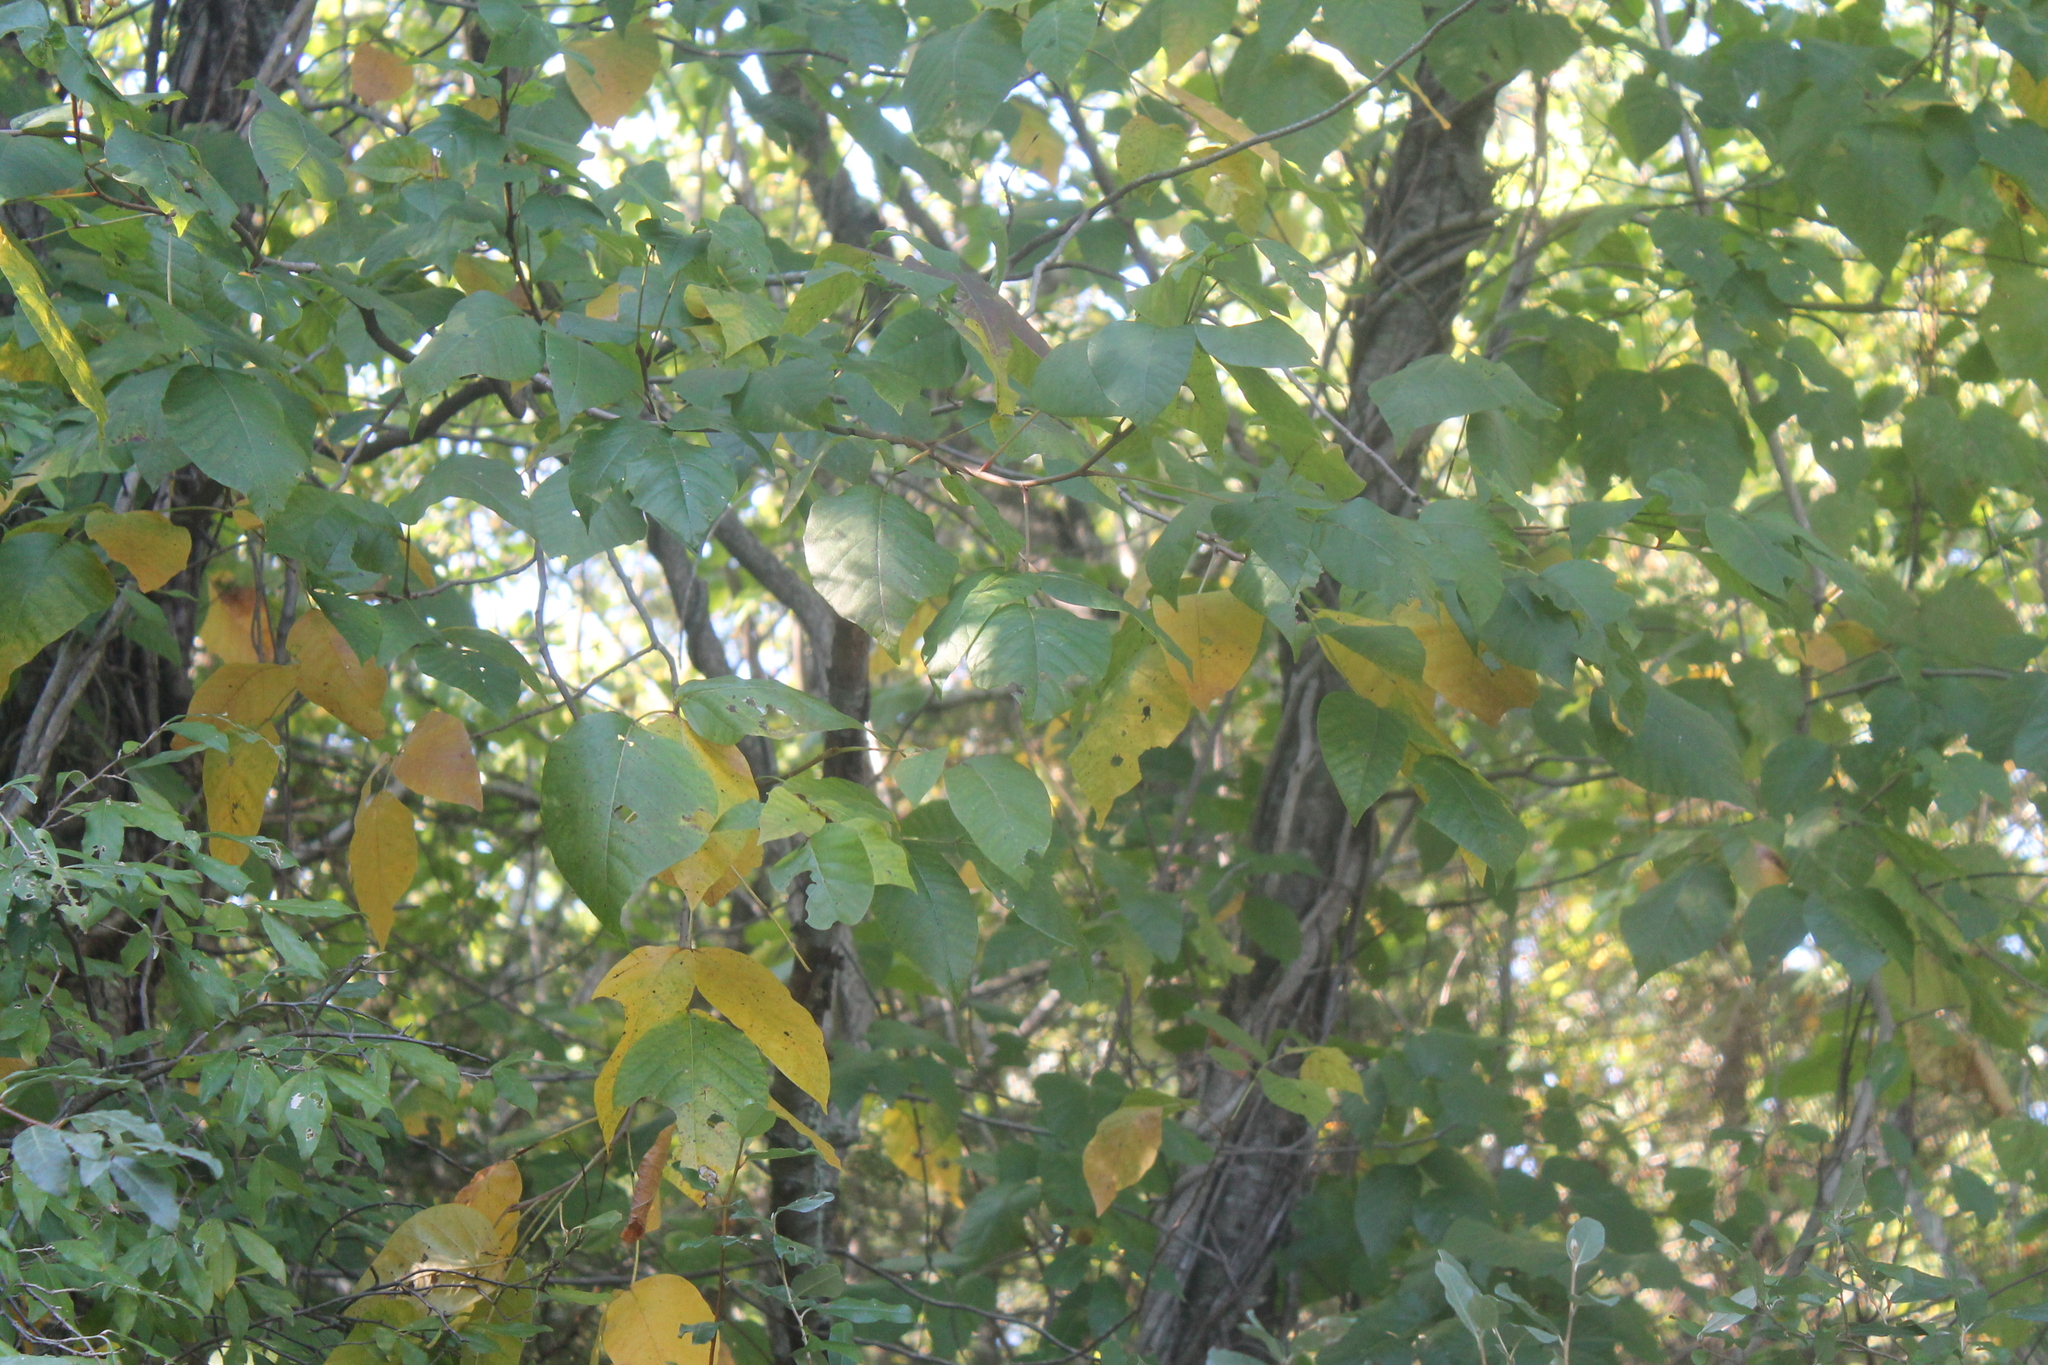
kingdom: Plantae
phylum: Tracheophyta
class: Magnoliopsida
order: Sapindales
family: Anacardiaceae
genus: Toxicodendron
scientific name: Toxicodendron radicans
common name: Poison ivy
